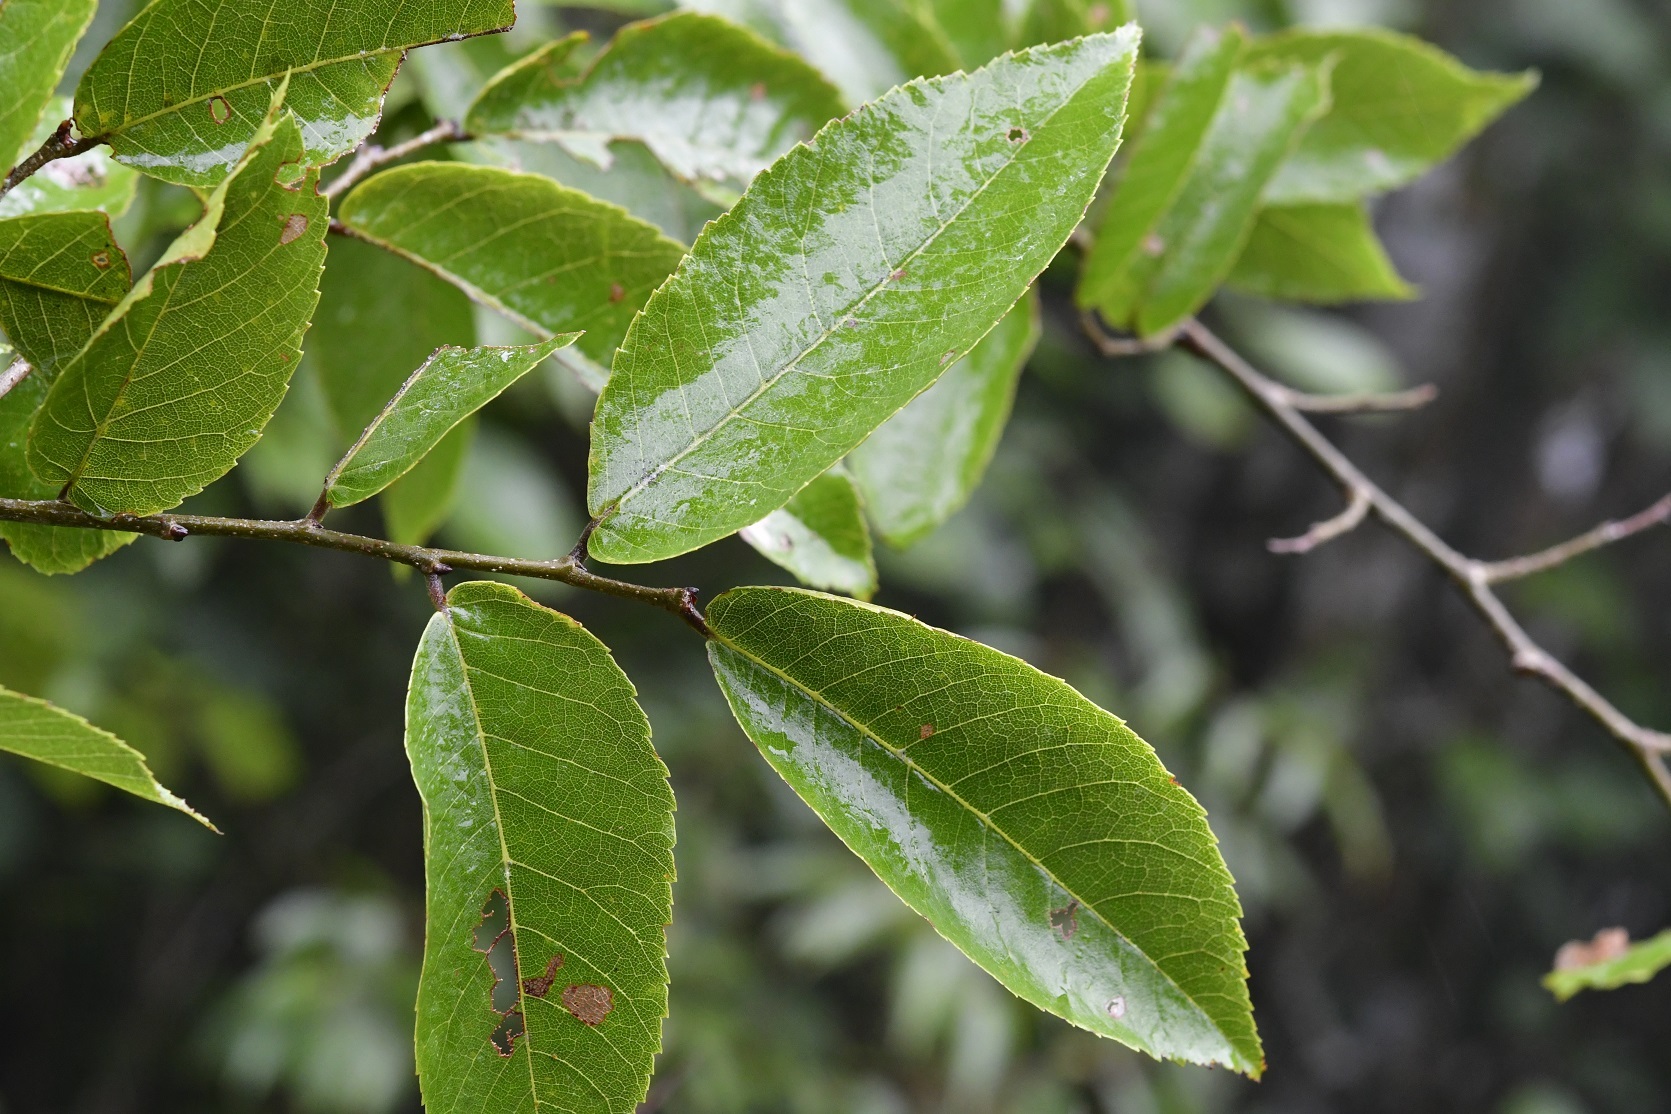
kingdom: Plantae
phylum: Tracheophyta
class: Magnoliopsida
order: Rosales
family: Ulmaceae
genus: Ulmus
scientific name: Ulmus ismaelis
